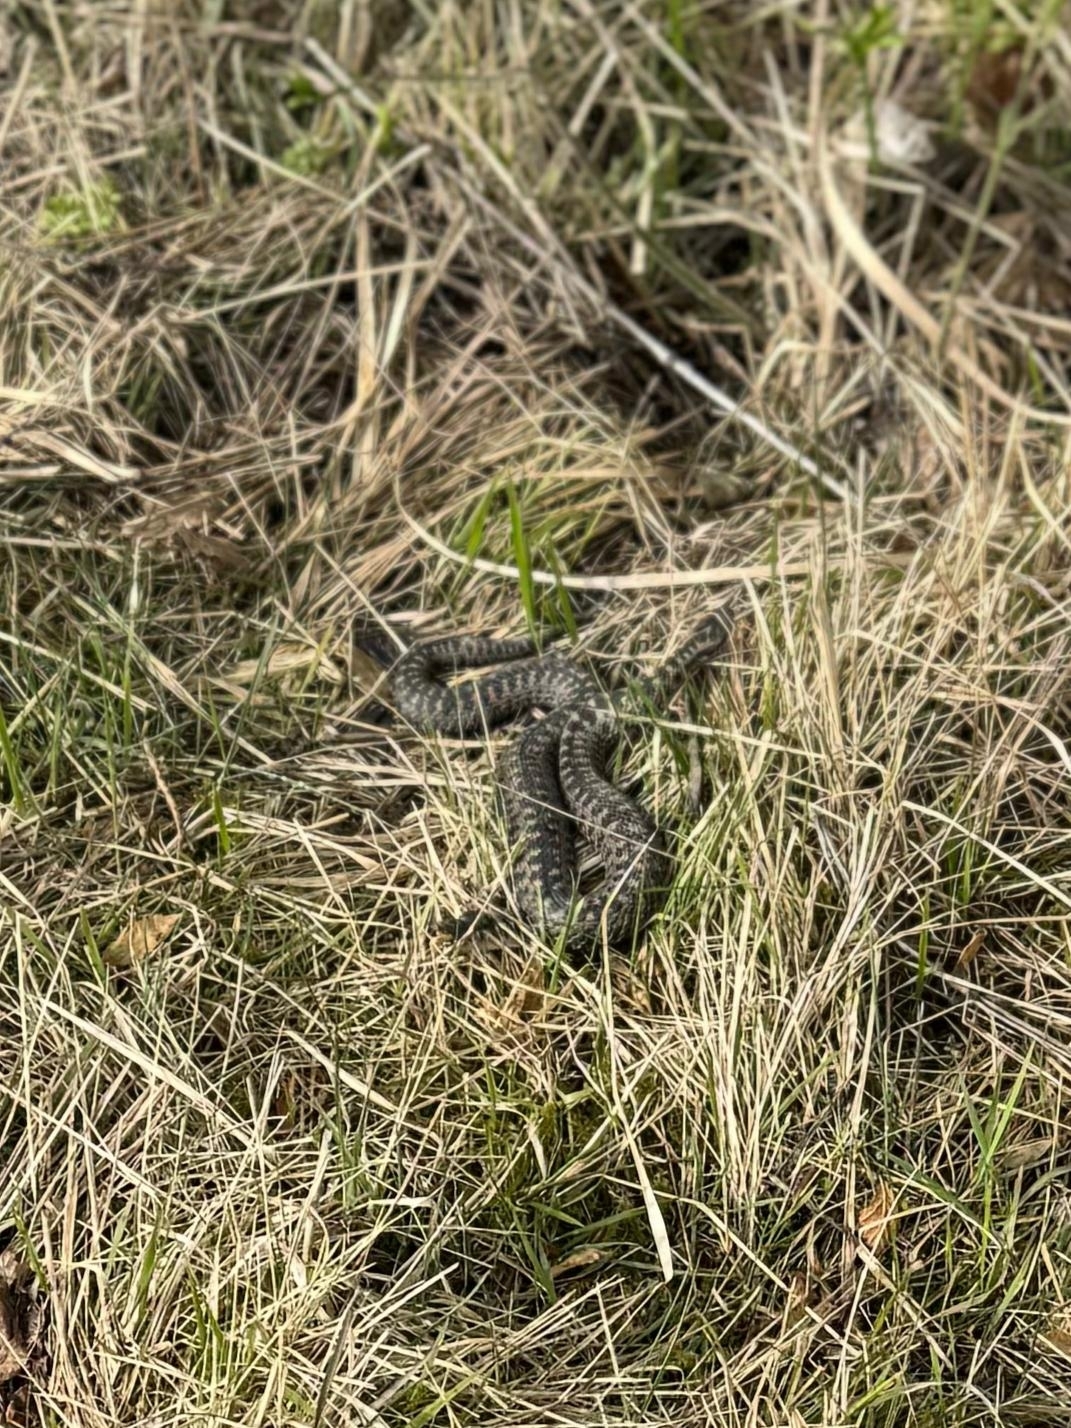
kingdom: Animalia
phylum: Chordata
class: Squamata
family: Viperidae
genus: Vipera
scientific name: Vipera berus
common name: Adder
